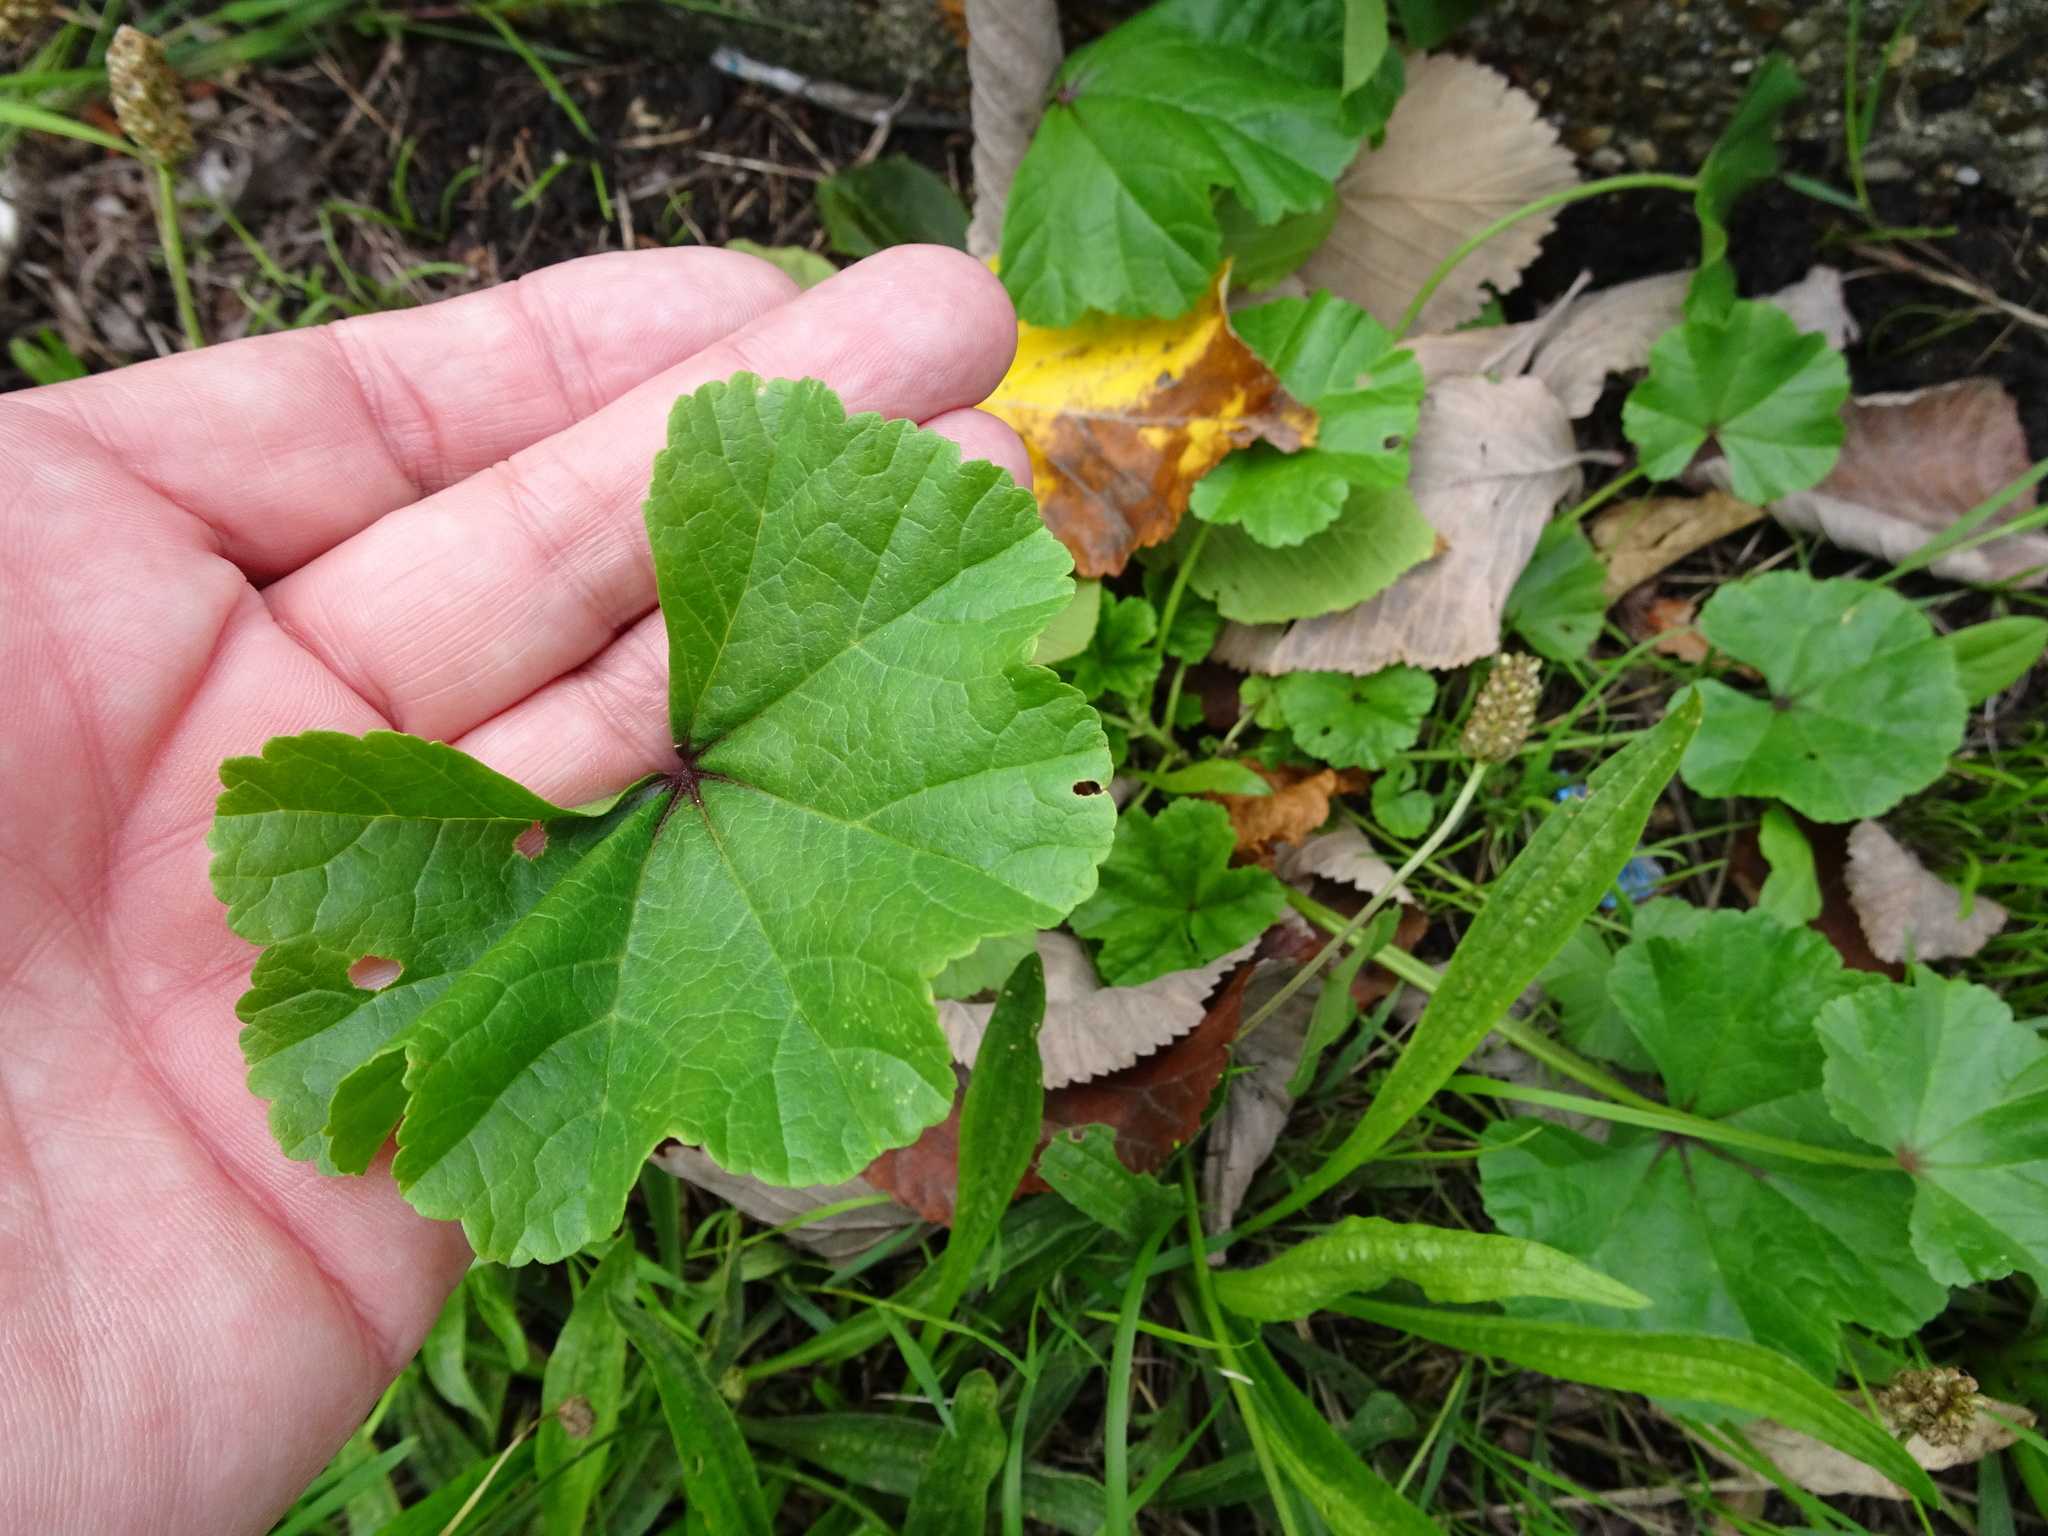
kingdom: Plantae
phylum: Tracheophyta
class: Magnoliopsida
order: Malvales
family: Malvaceae
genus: Malva
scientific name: Malva sylvestris
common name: Common mallow
